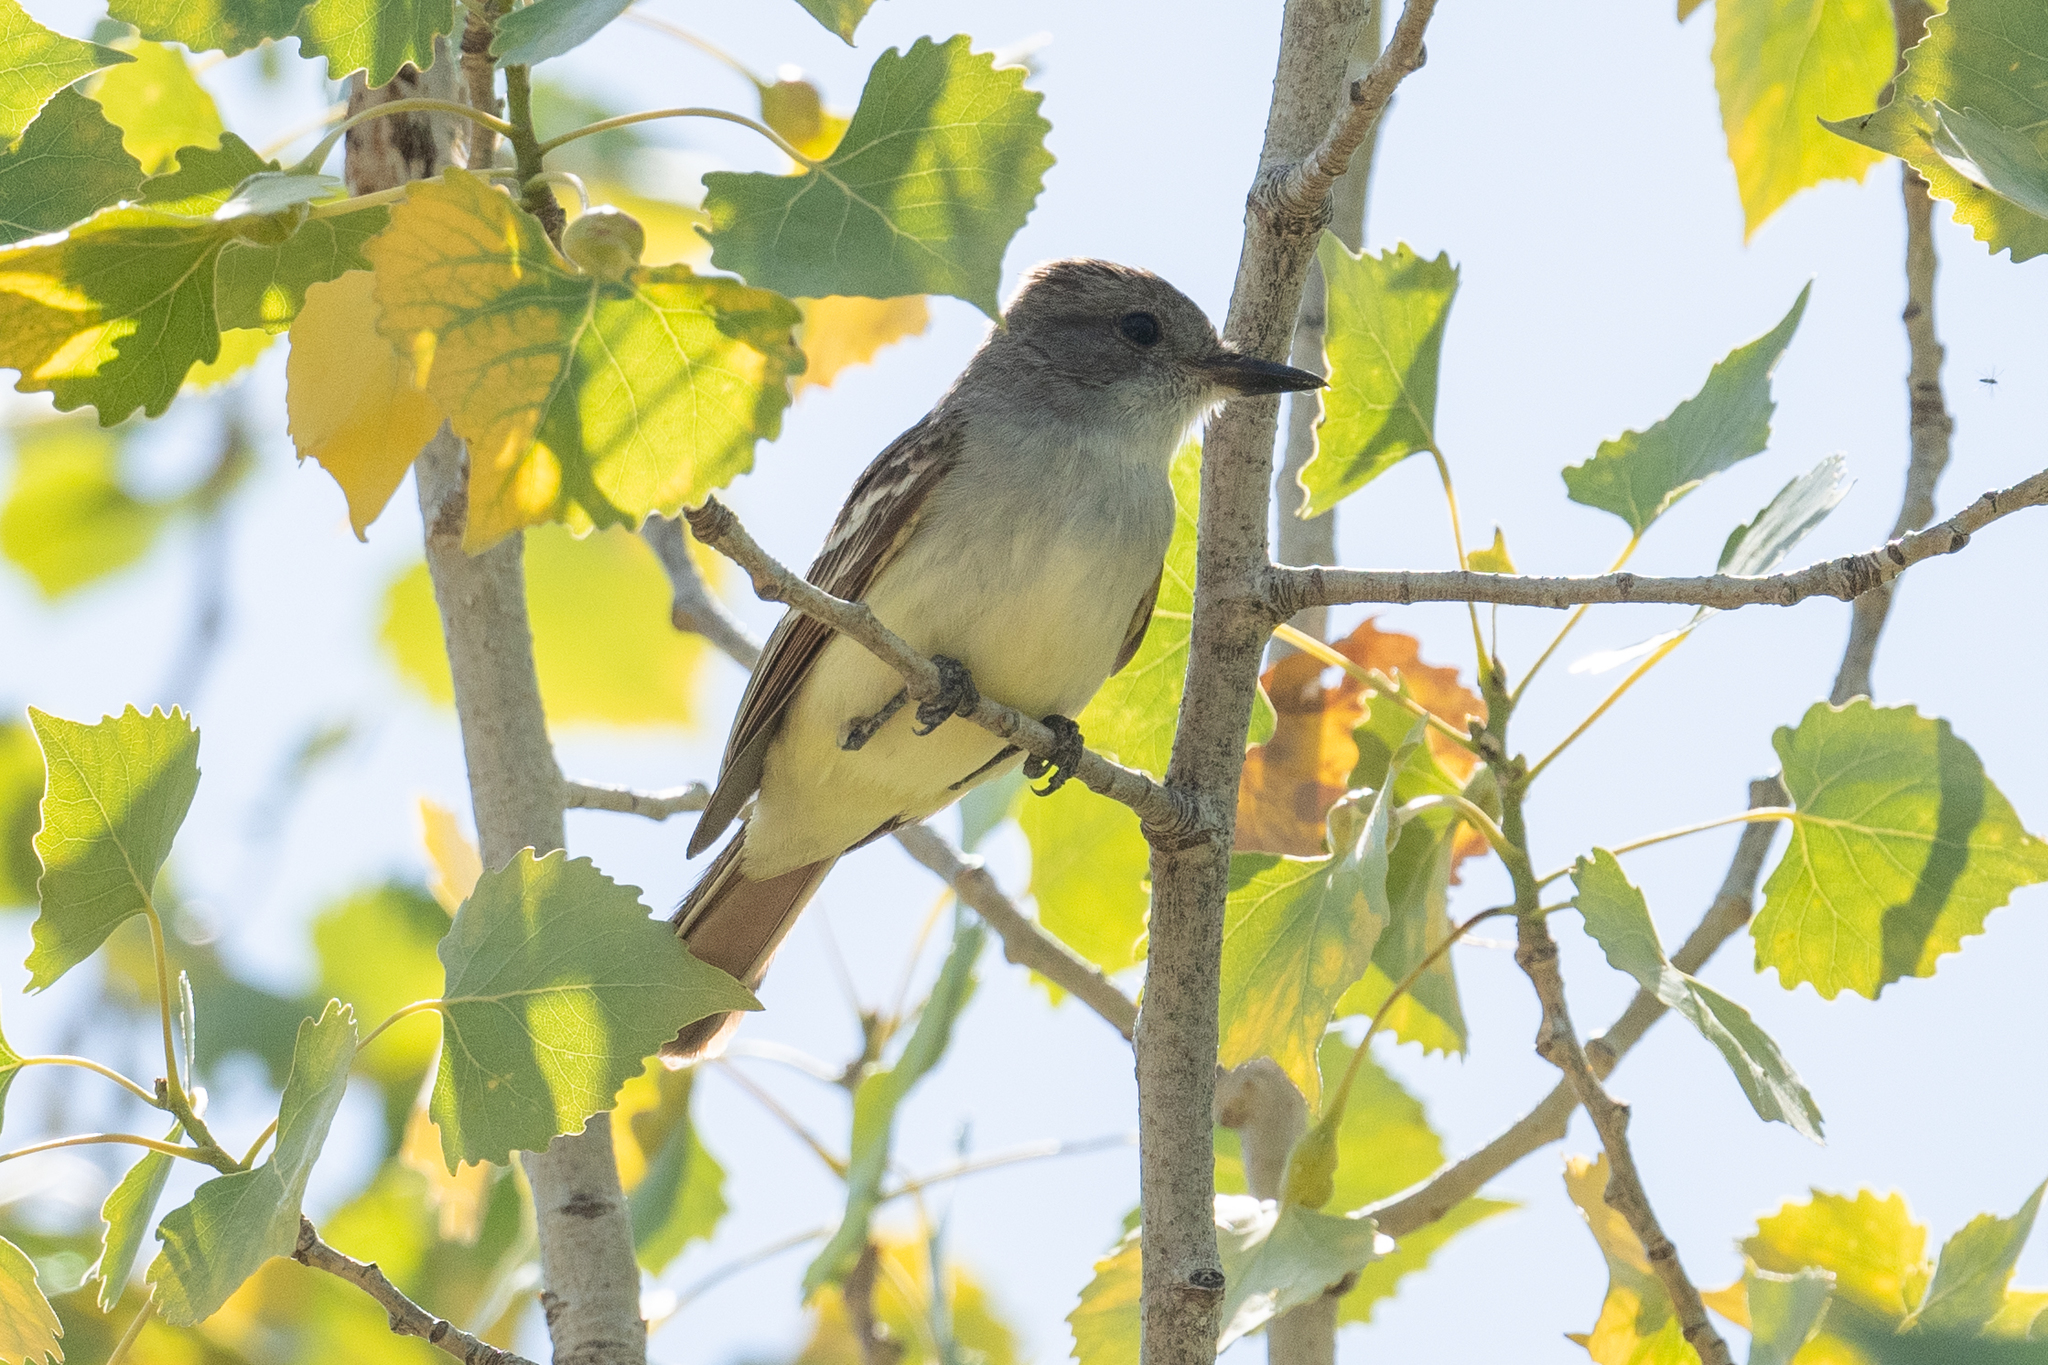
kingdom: Animalia
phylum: Chordata
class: Aves
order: Passeriformes
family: Tyrannidae
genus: Myiarchus
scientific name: Myiarchus cinerascens
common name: Ash-throated flycatcher
